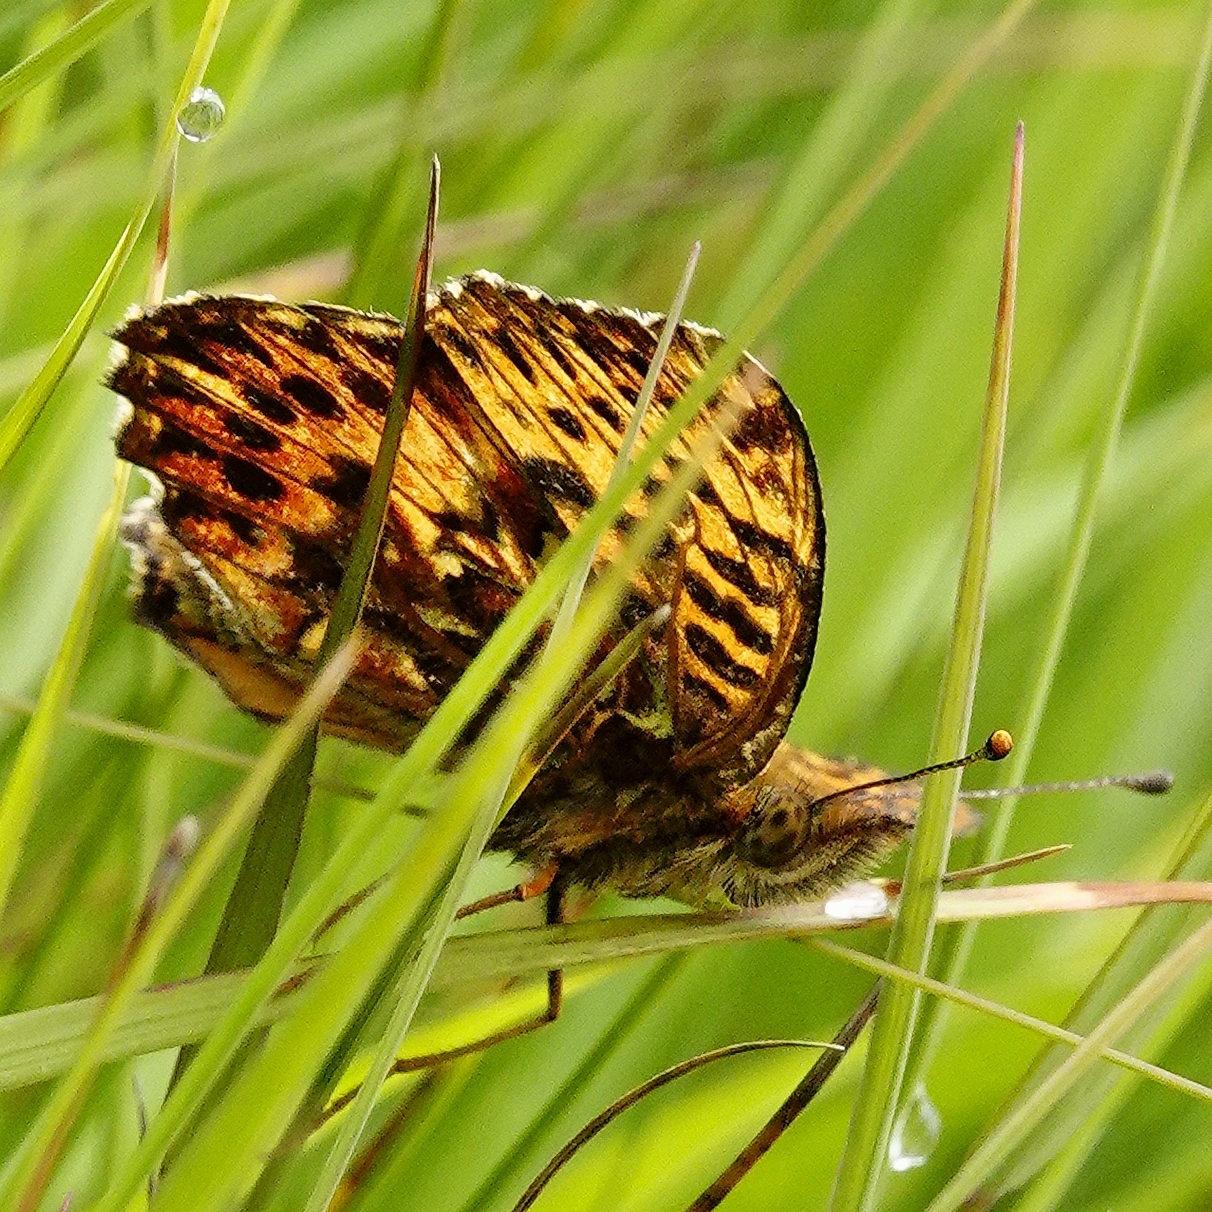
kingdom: Animalia
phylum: Arthropoda
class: Insecta
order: Lepidoptera
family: Nymphalidae
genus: Boloria
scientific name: Boloria titania
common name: Titania's fritillary
